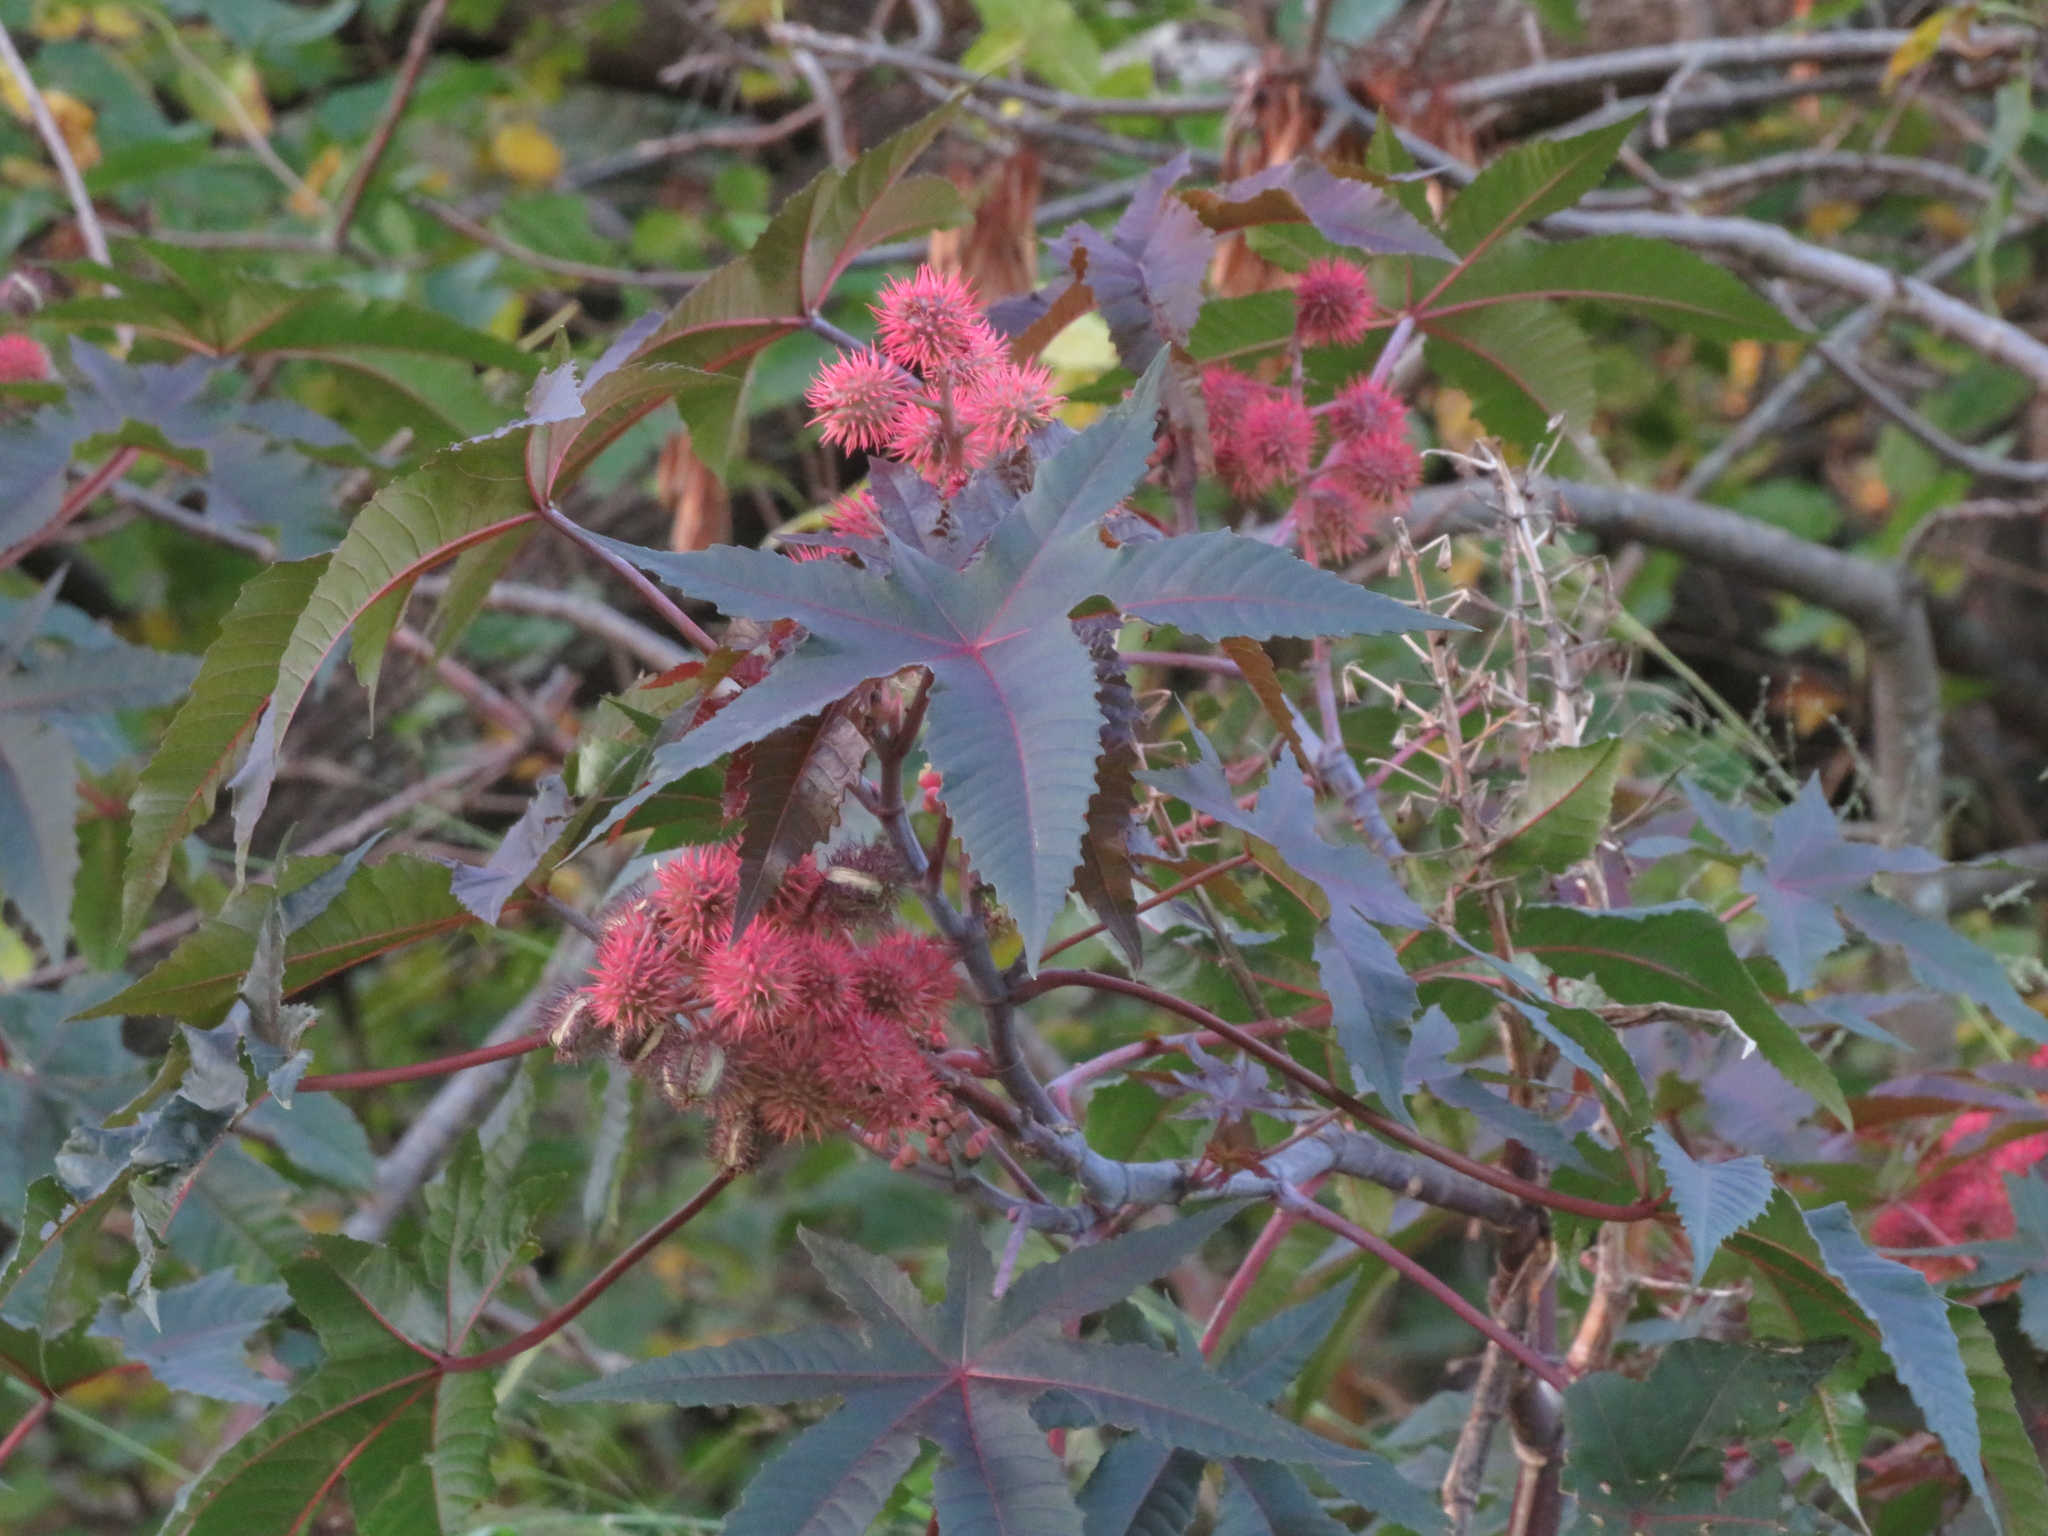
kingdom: Plantae
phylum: Tracheophyta
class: Magnoliopsida
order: Malpighiales
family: Euphorbiaceae
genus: Ricinus
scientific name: Ricinus communis
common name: Castor-oil-plant
